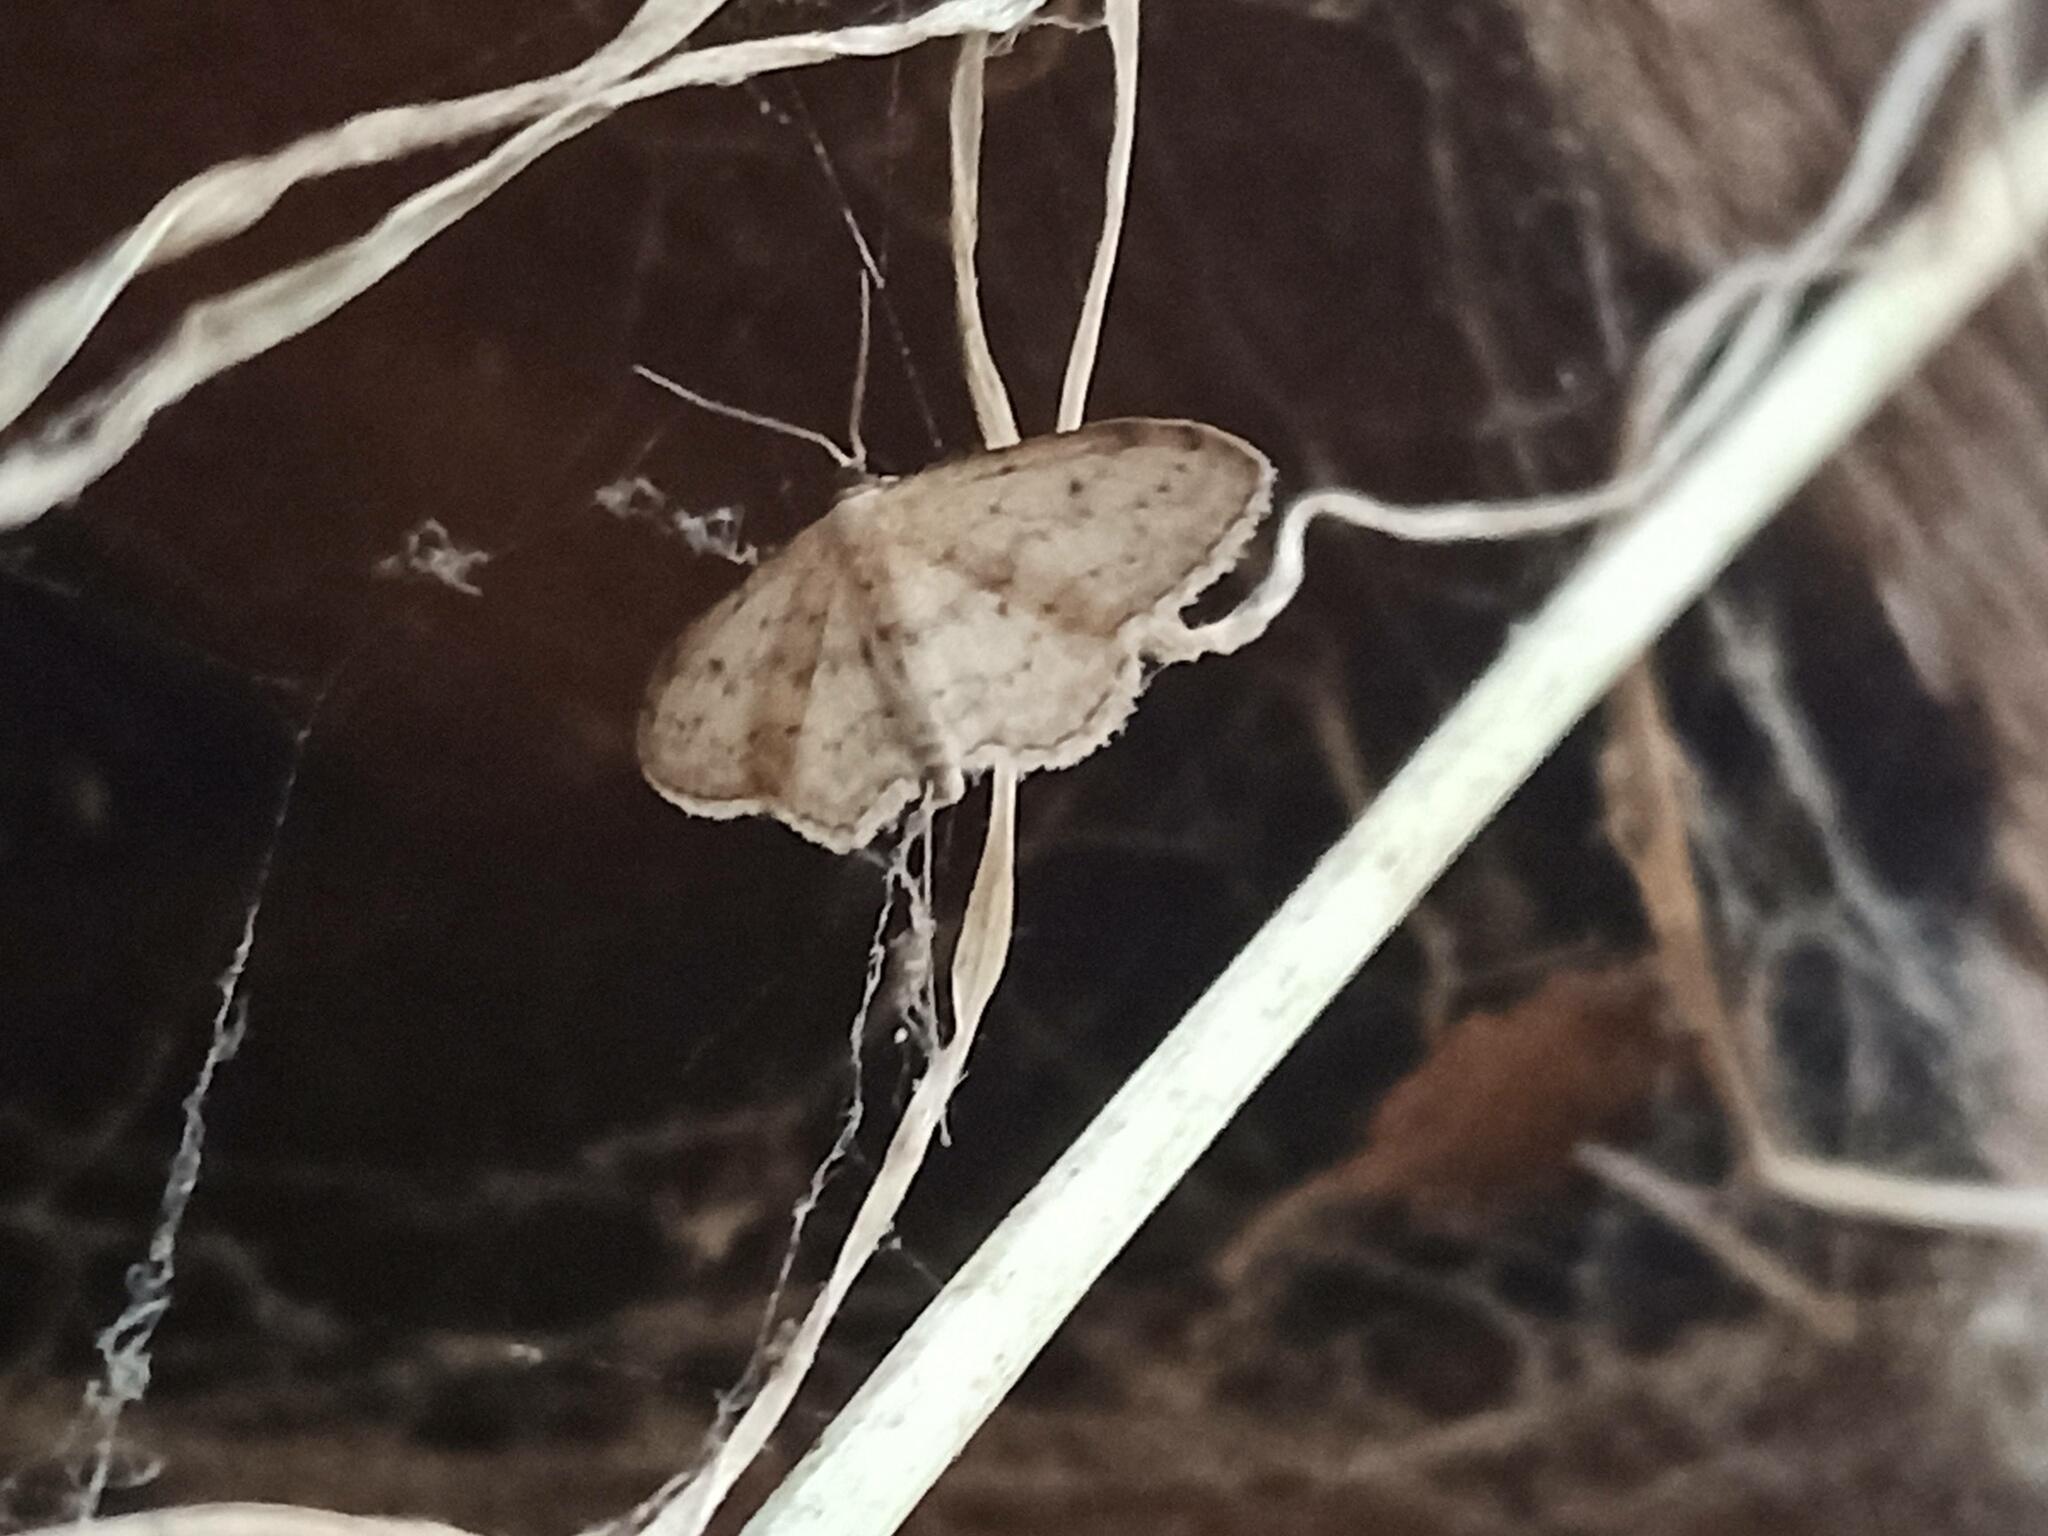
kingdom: Animalia
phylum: Arthropoda
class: Insecta
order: Lepidoptera
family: Geometridae
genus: Idaea
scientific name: Idaea seriata
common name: Small dusty wave
